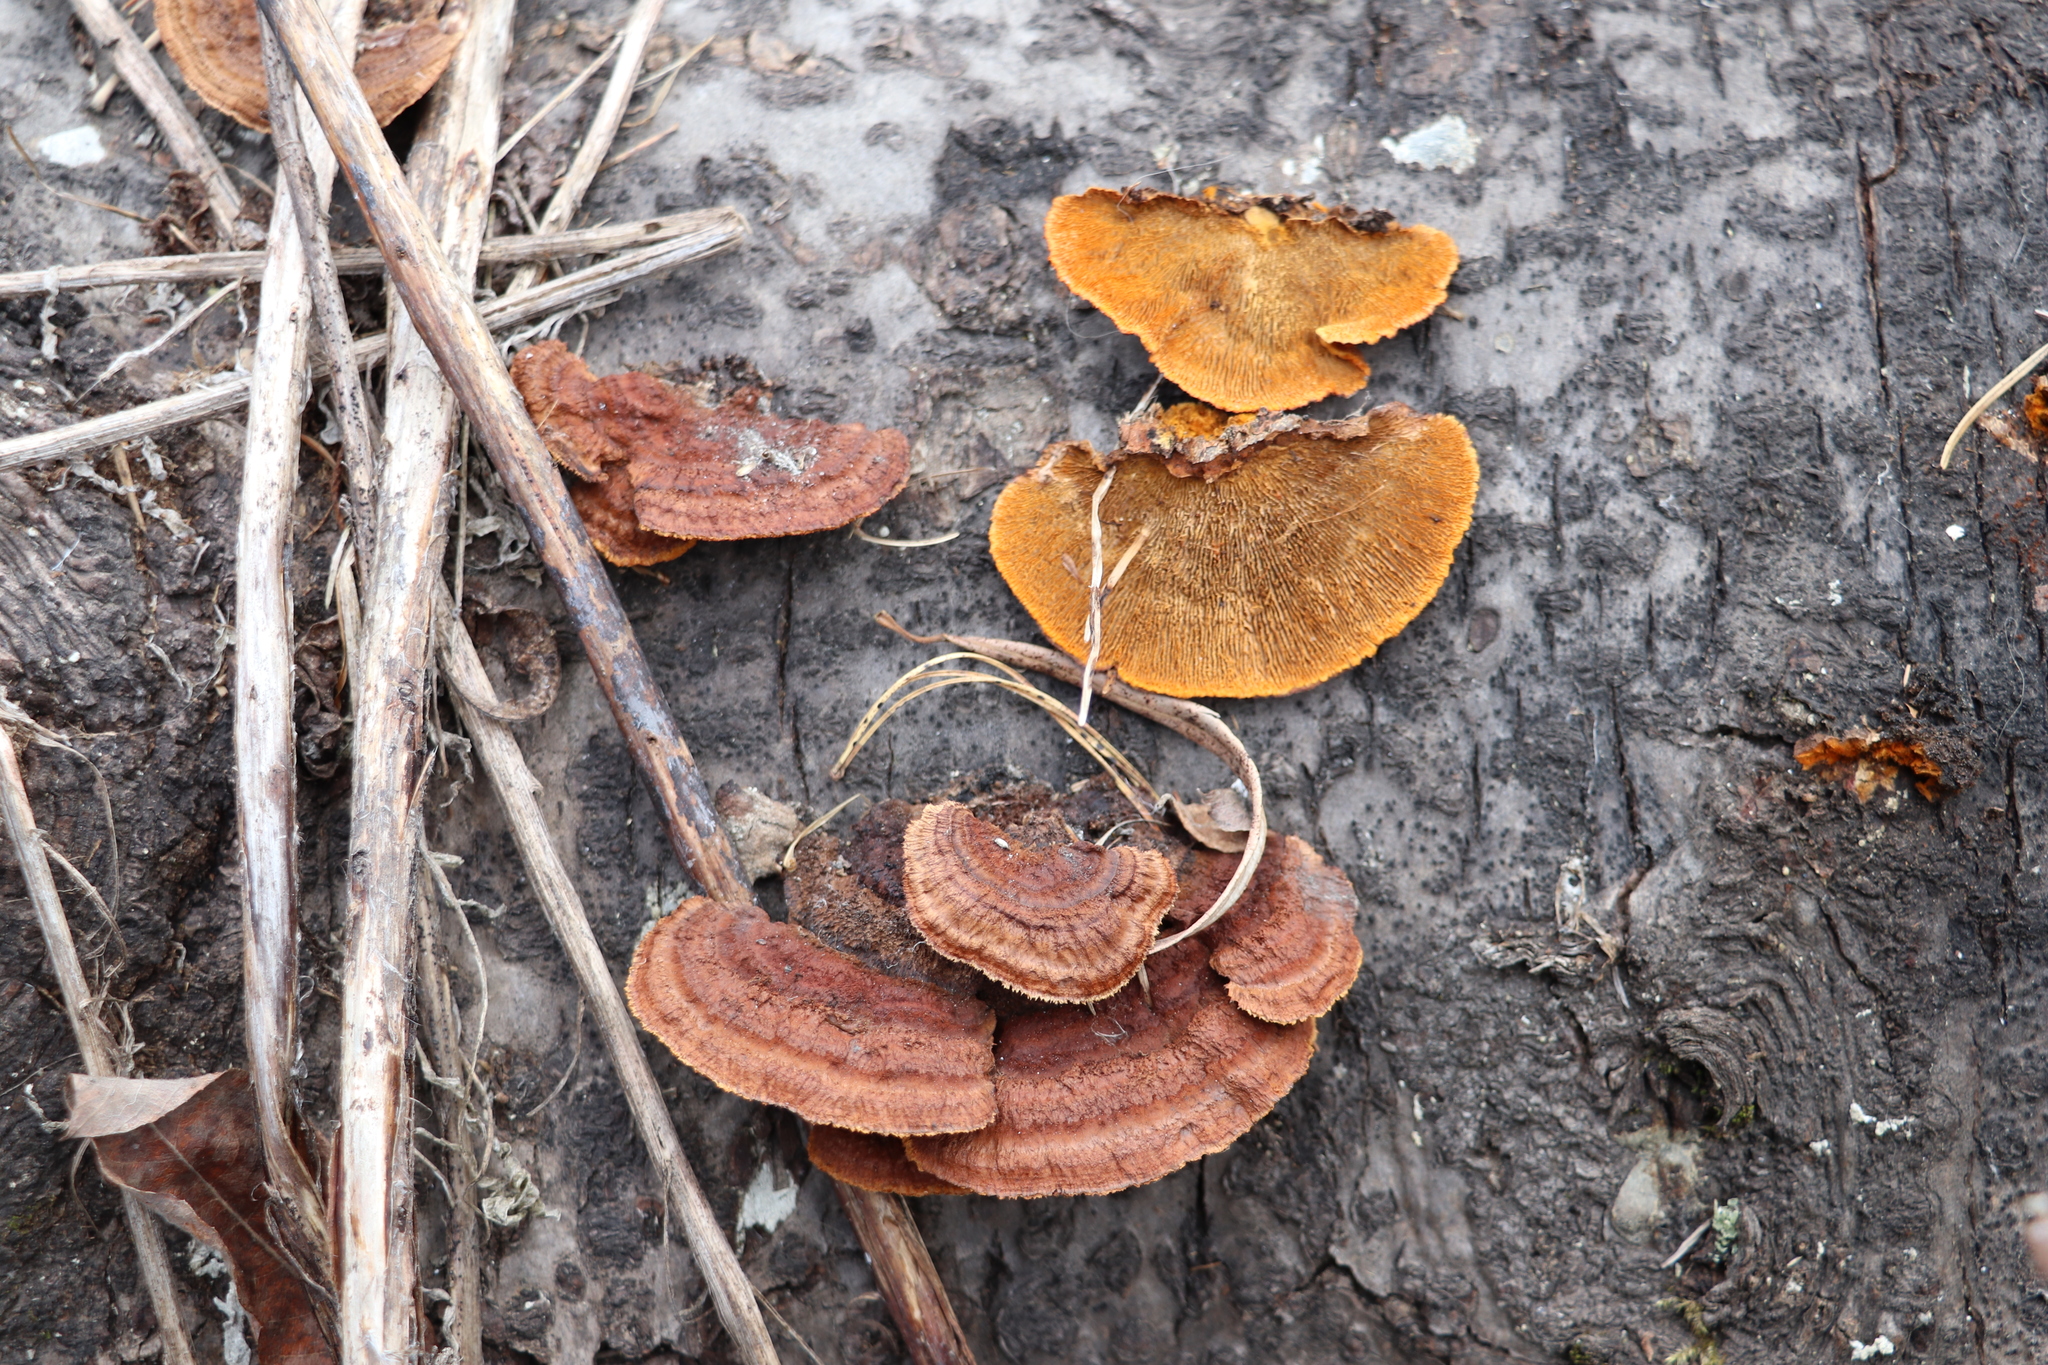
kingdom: Fungi
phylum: Basidiomycota
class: Agaricomycetes
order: Gloeophyllales
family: Gloeophyllaceae
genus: Gloeophyllum
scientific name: Gloeophyllum sepiarium
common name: Conifer mazegill
